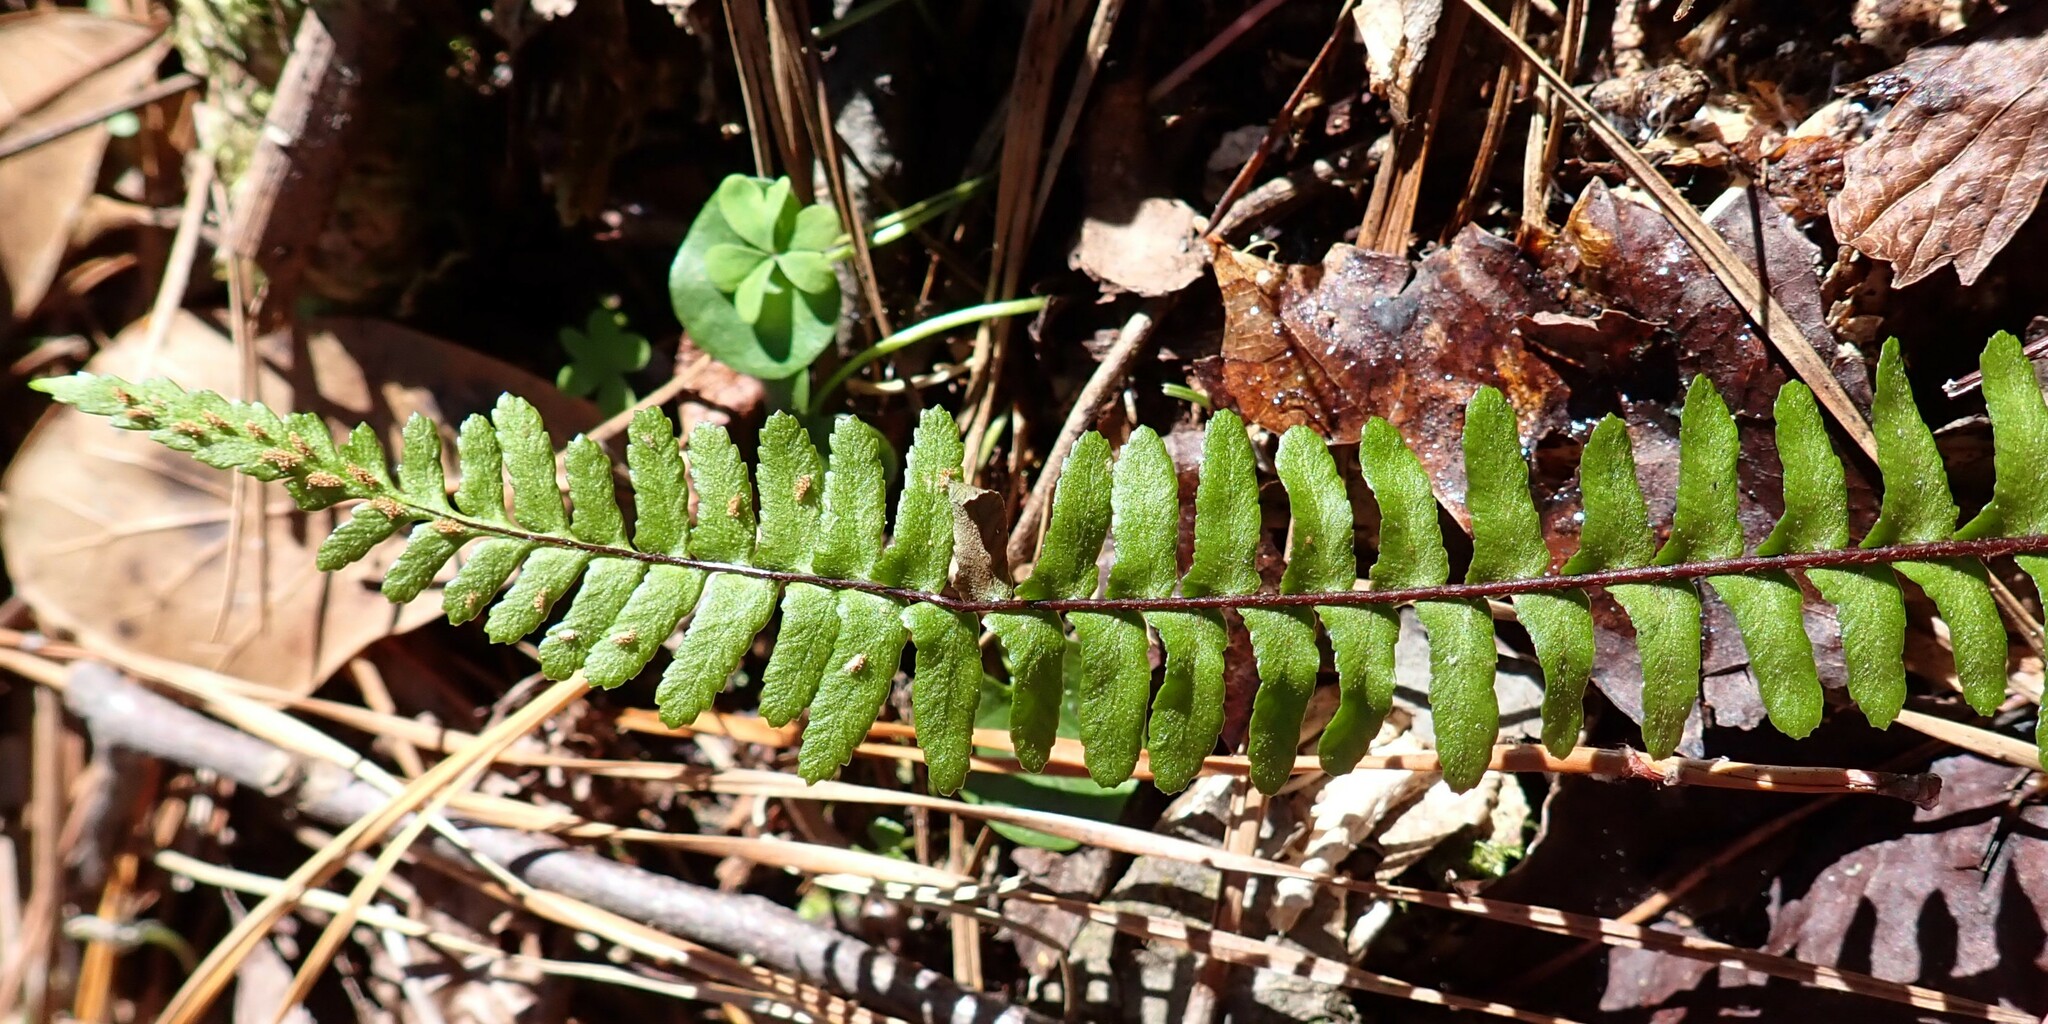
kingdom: Plantae
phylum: Tracheophyta
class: Polypodiopsida
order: Polypodiales
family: Aspleniaceae
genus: Asplenium
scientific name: Asplenium platyneuron
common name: Ebony spleenwort
